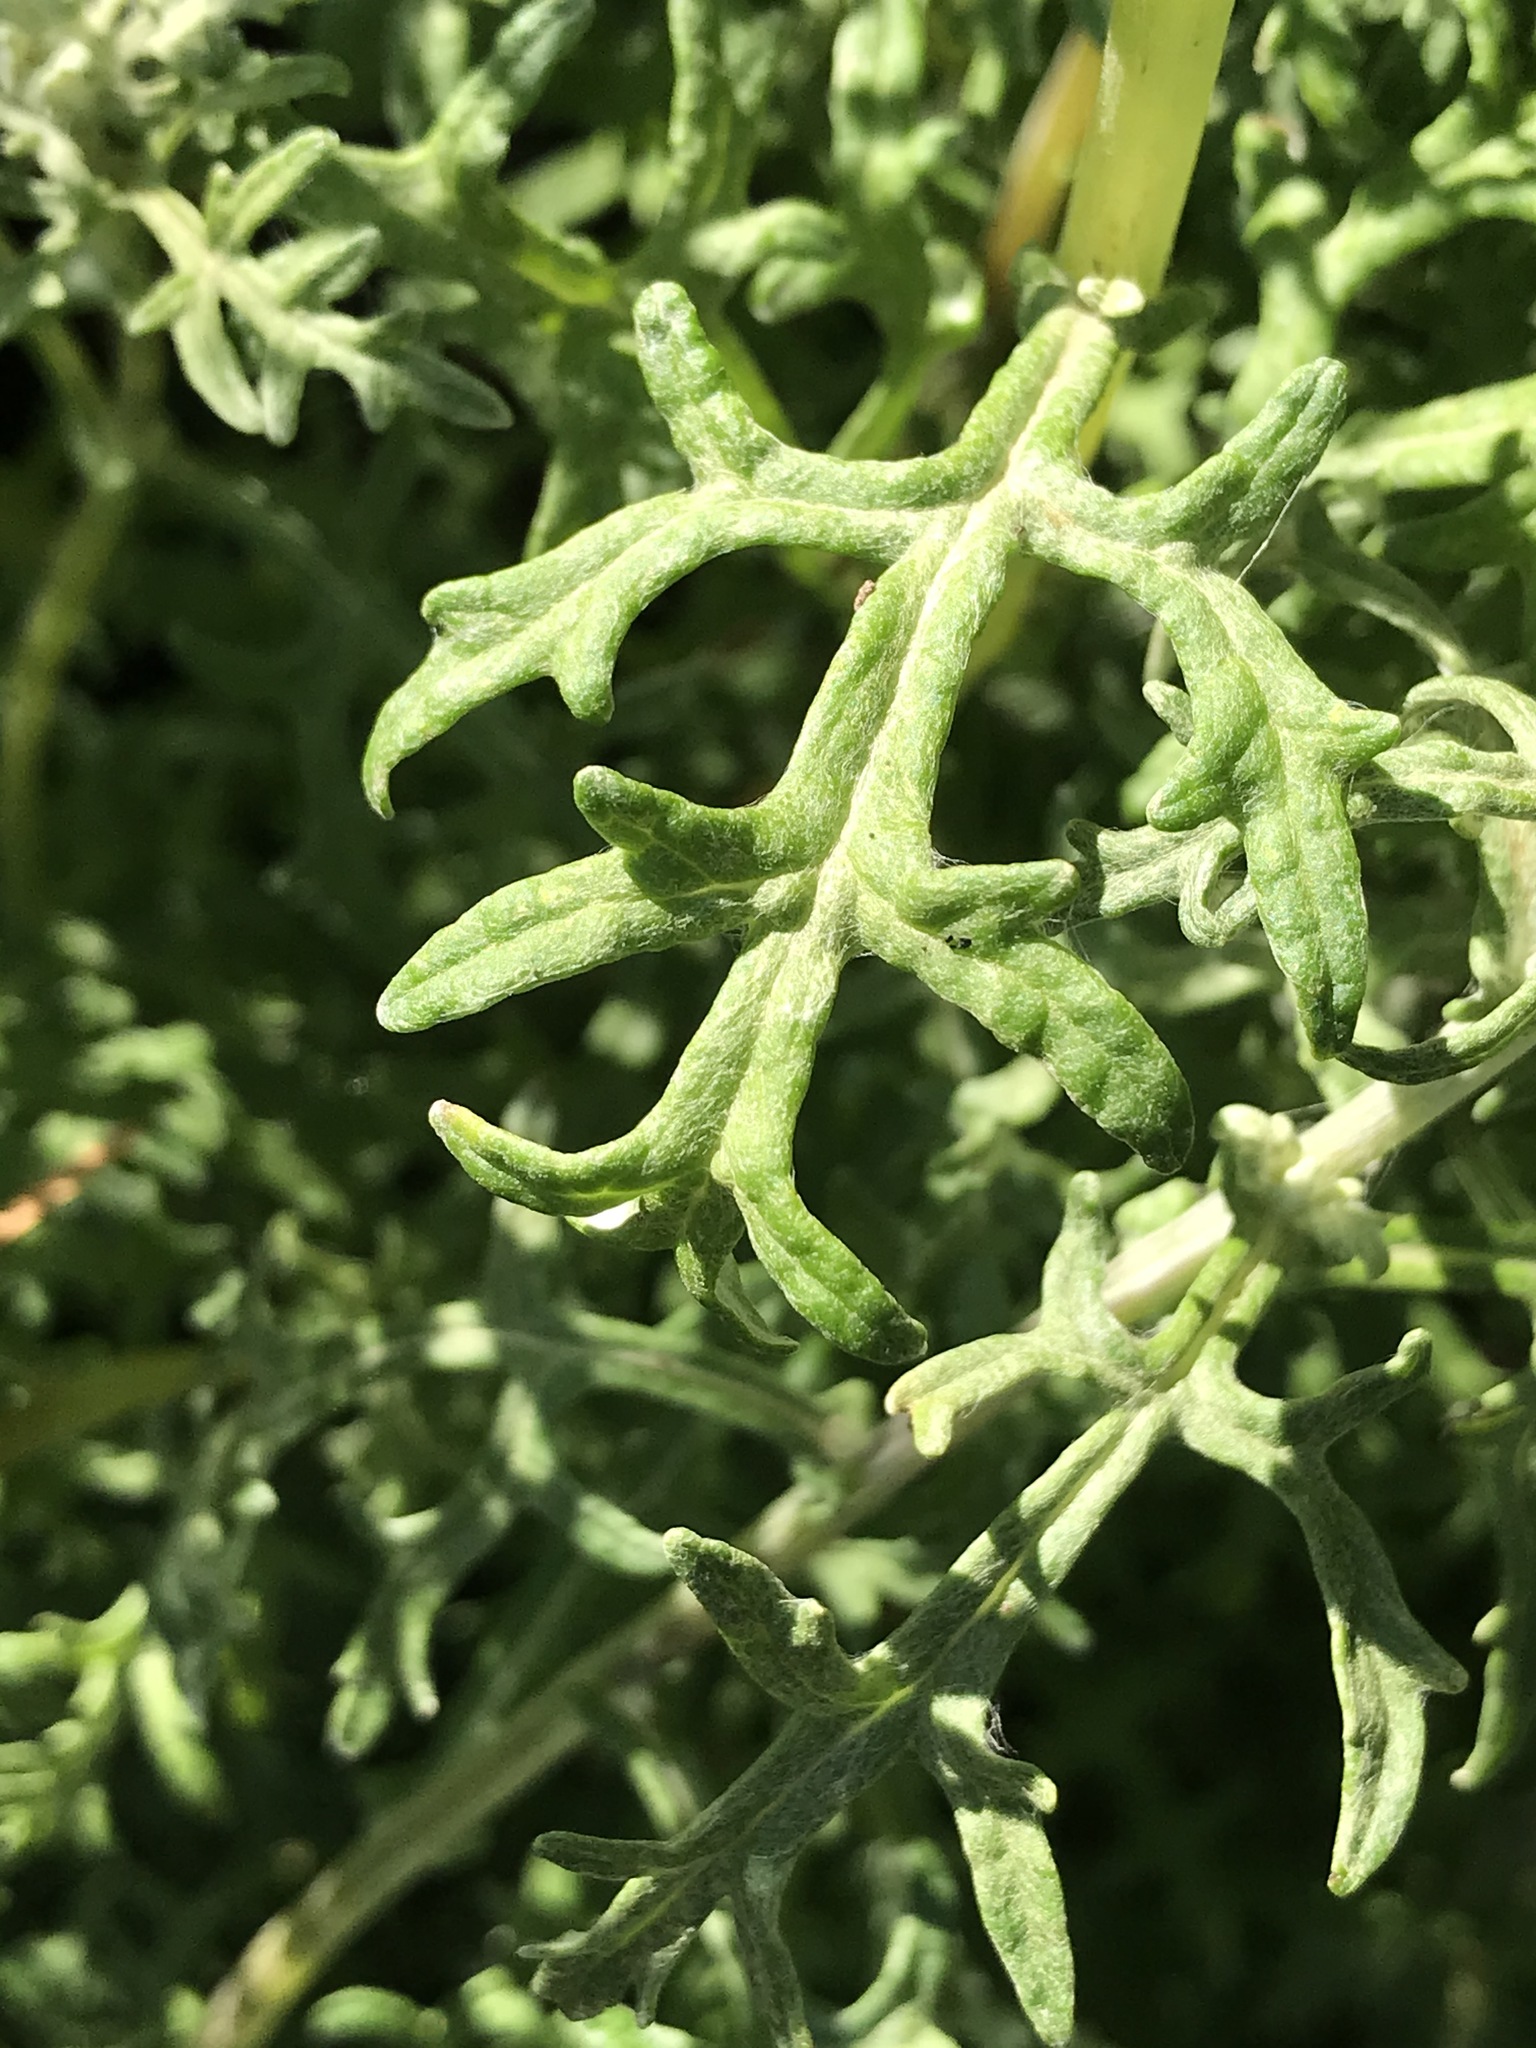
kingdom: Plantae
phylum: Tracheophyta
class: Magnoliopsida
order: Asterales
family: Asteraceae
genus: Eriophyllum
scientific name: Eriophyllum staechadifolium
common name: Lizardtail
